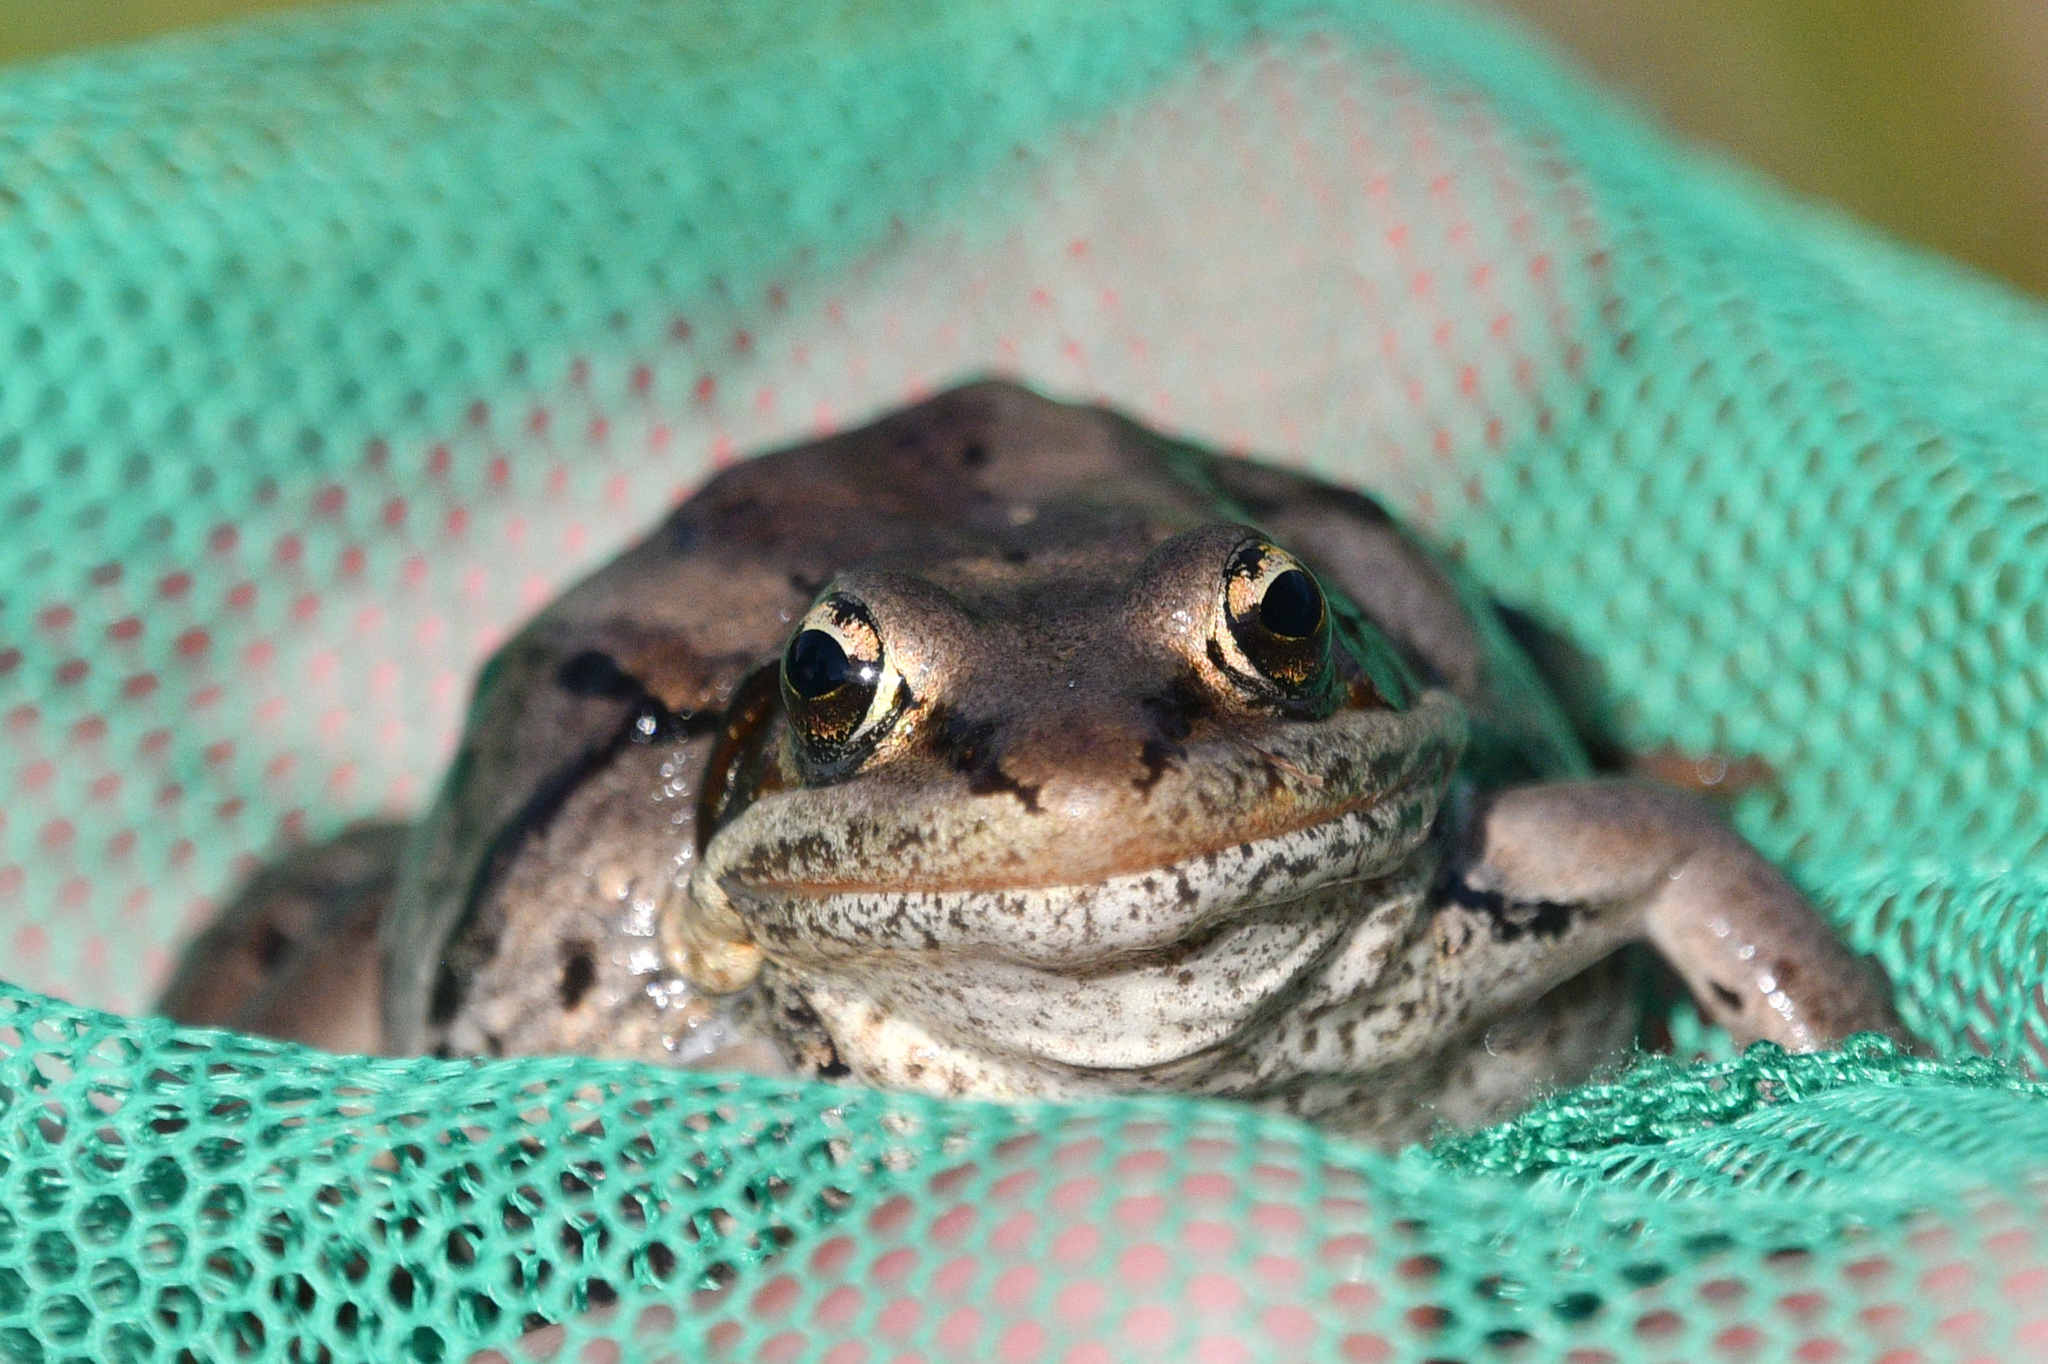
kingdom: Animalia
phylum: Chordata
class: Amphibia
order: Anura
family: Ranidae
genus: Lithobates
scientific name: Lithobates sylvaticus
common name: Wood frog
